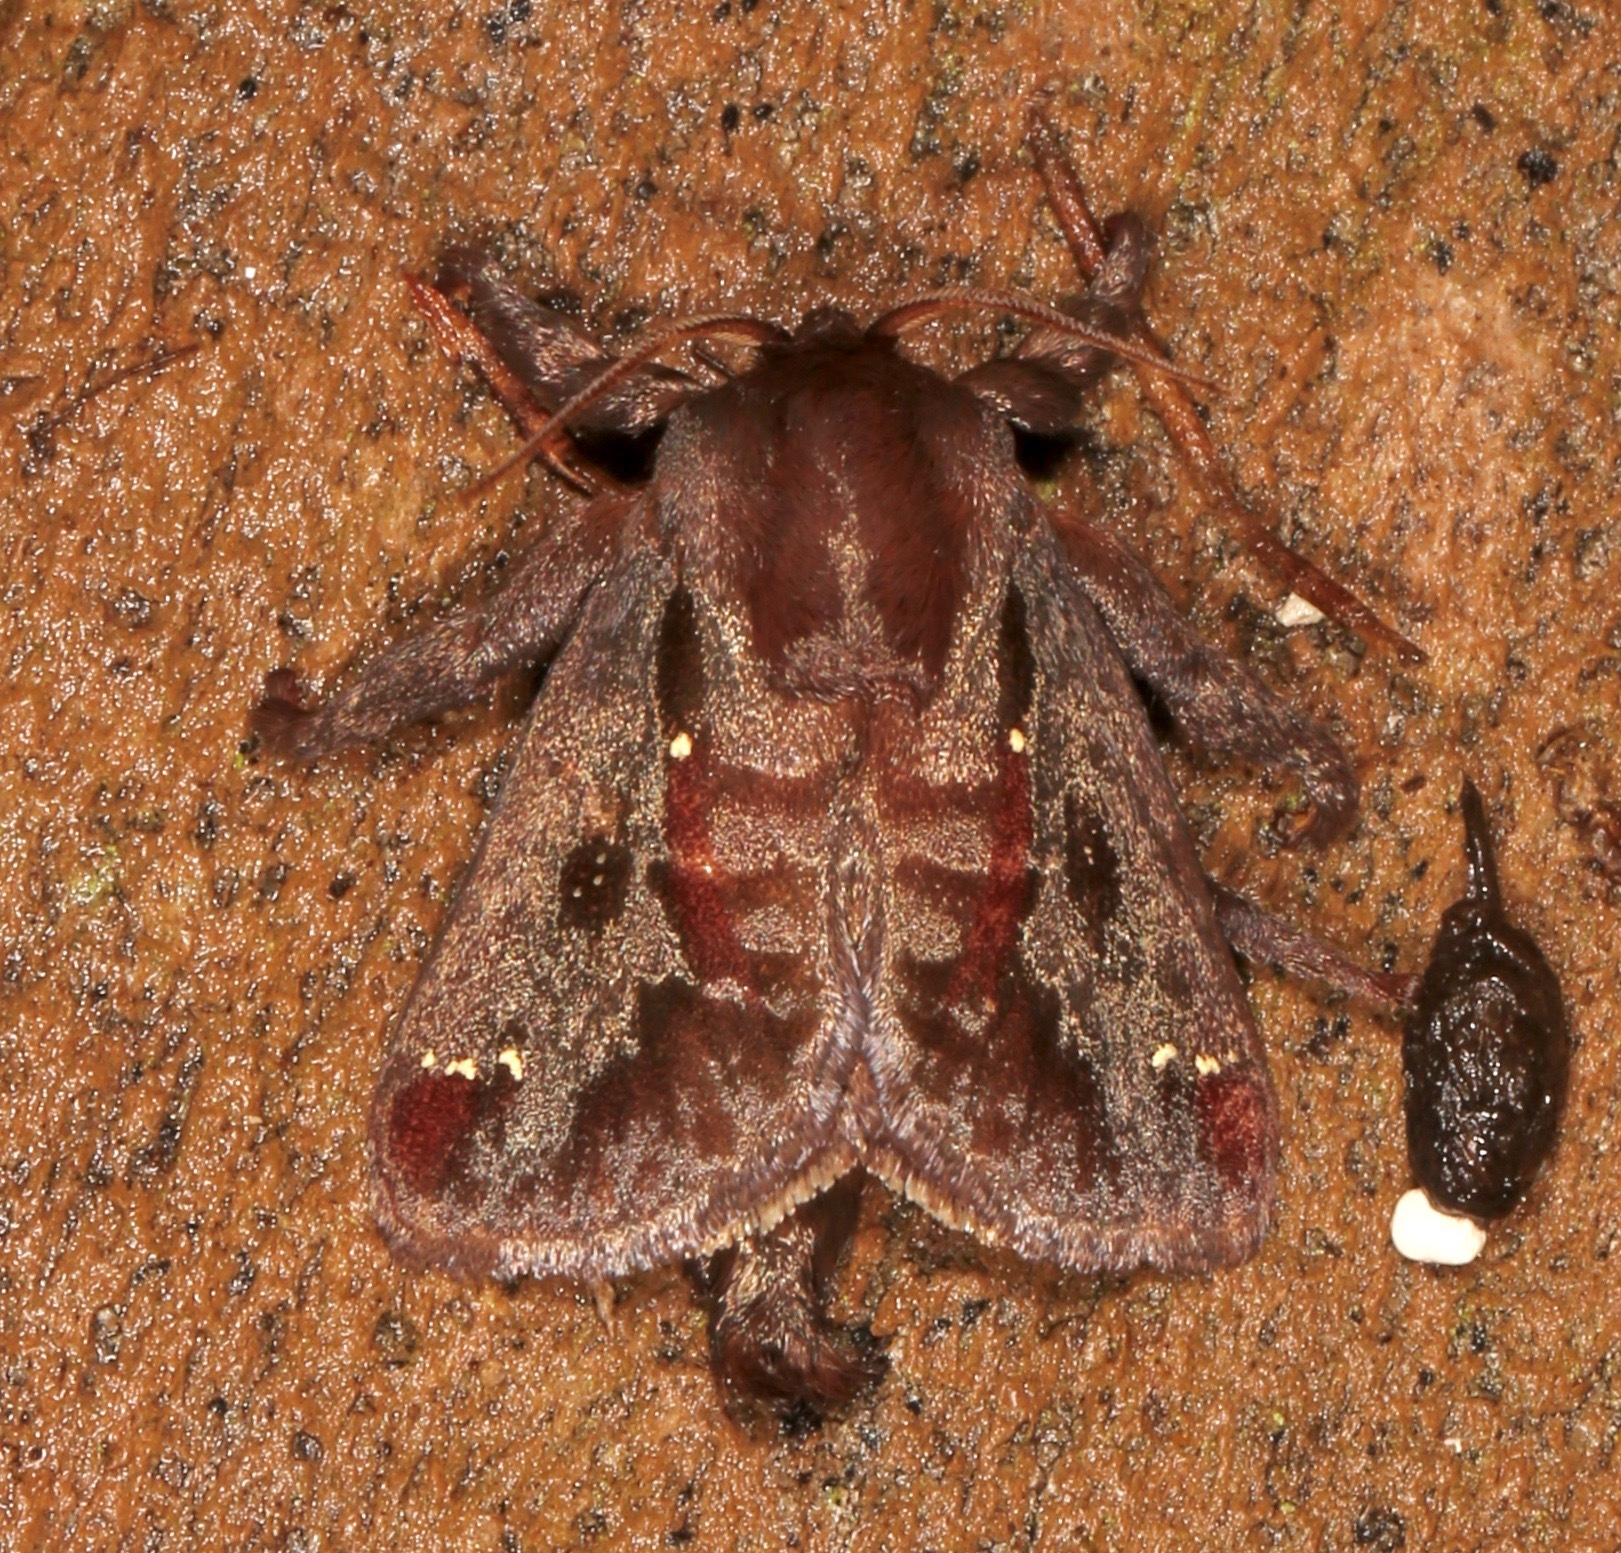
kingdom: Animalia
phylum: Arthropoda
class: Insecta
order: Lepidoptera
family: Limacodidae
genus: Acharia
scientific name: Acharia stimulea
